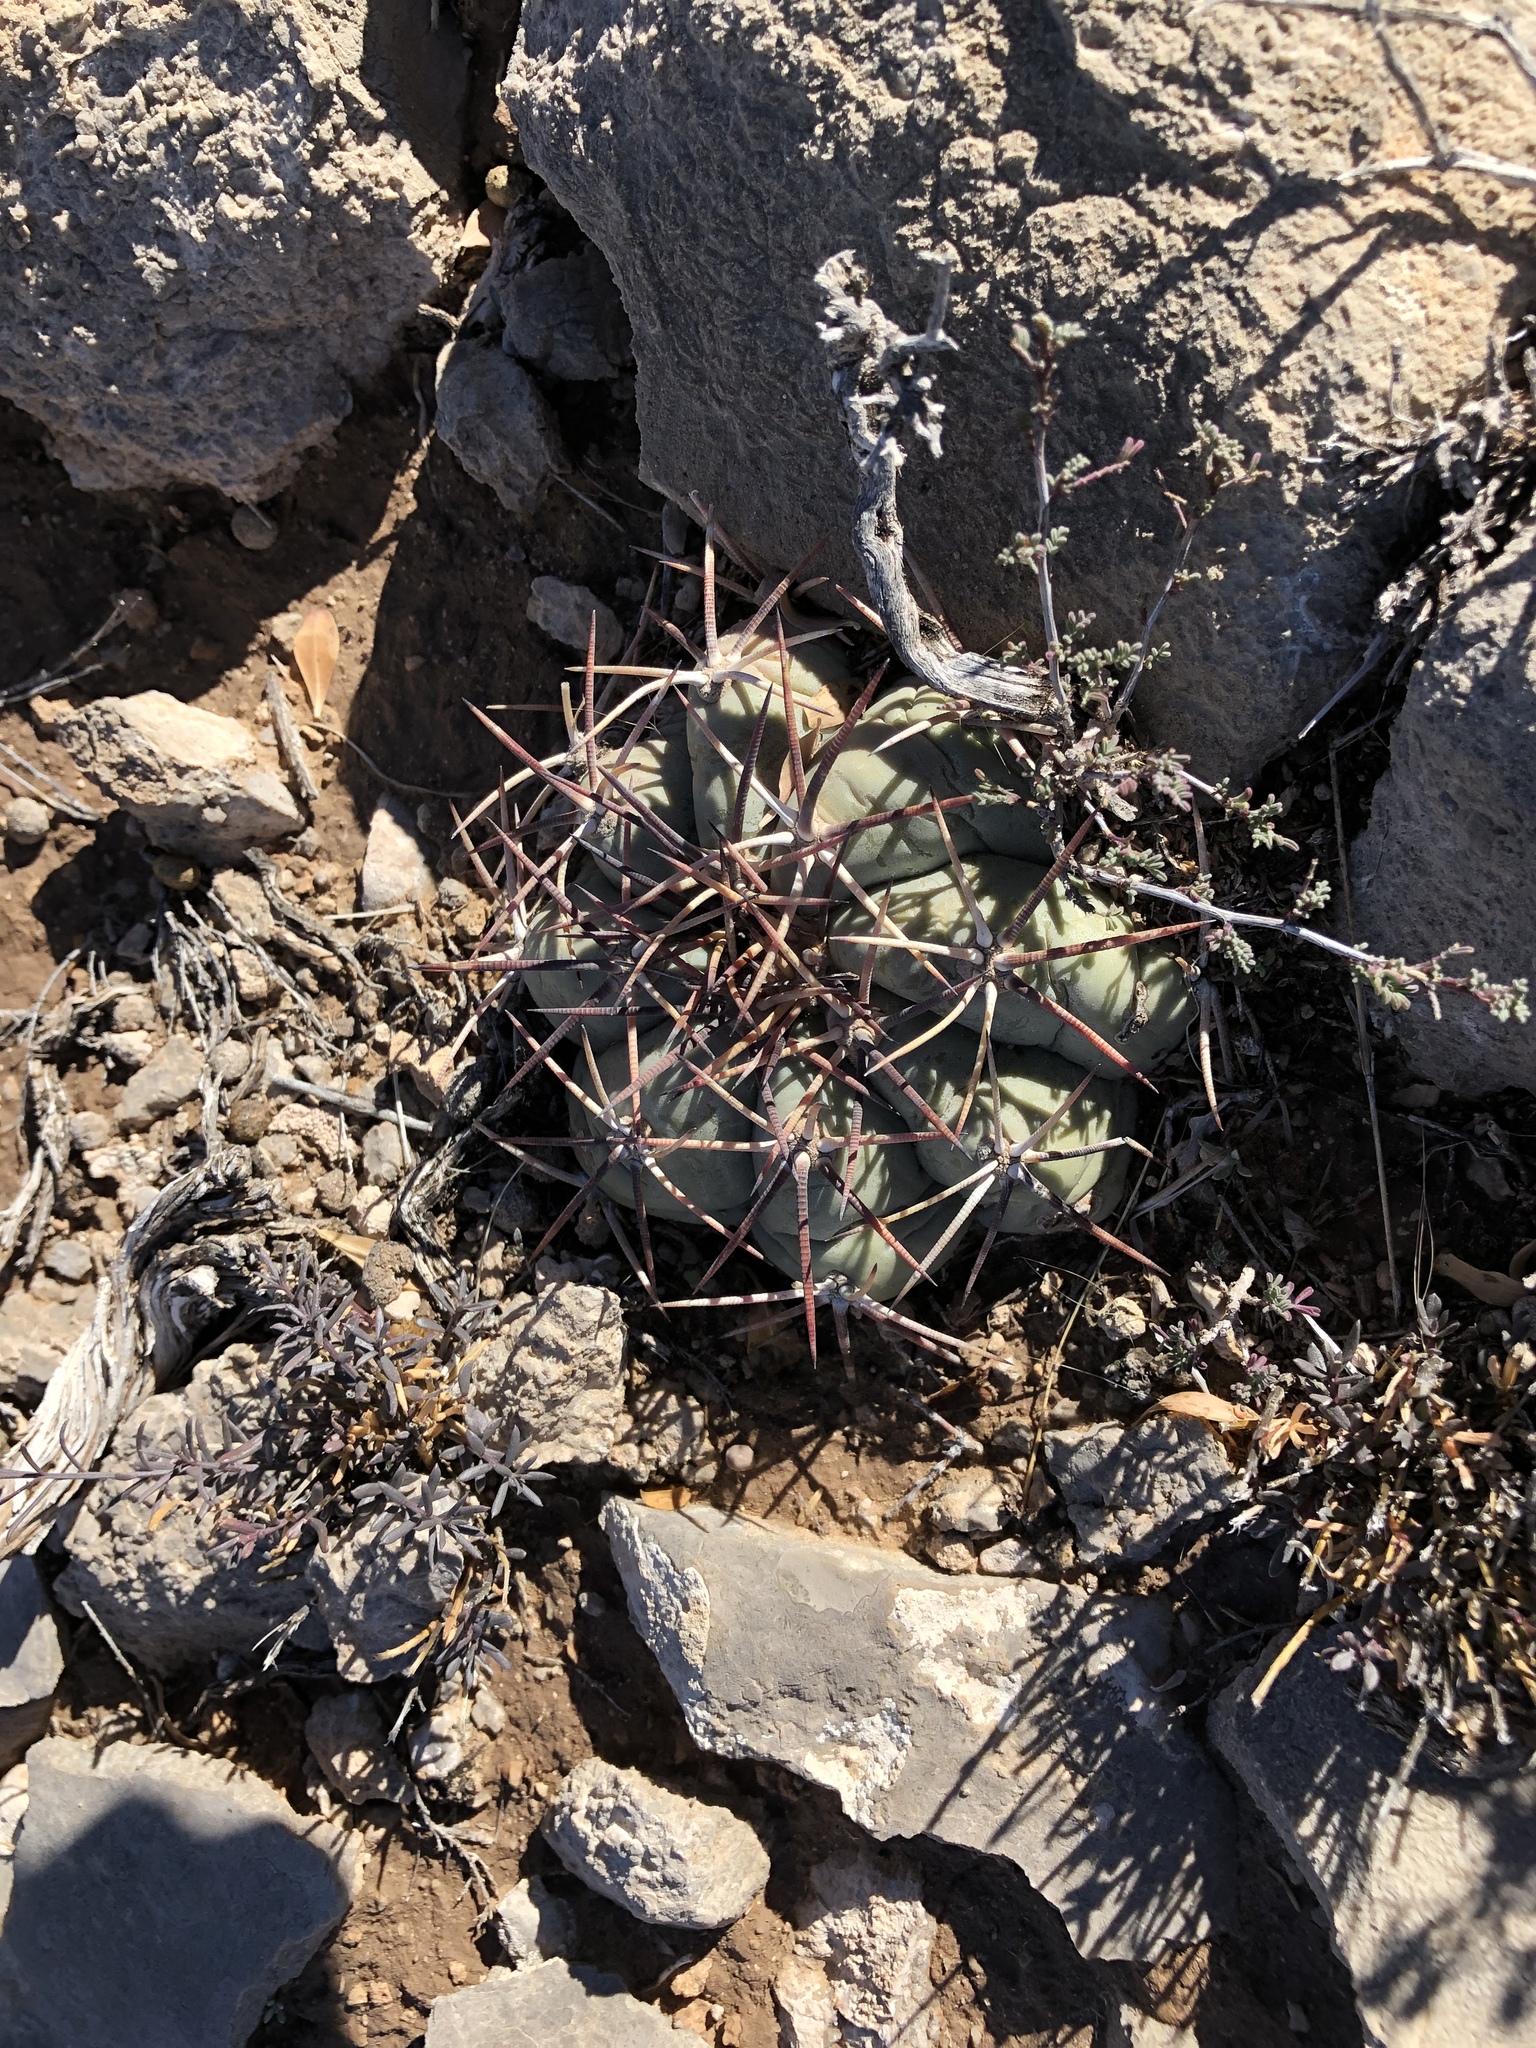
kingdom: Plantae
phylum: Tracheophyta
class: Magnoliopsida
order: Caryophyllales
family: Cactaceae
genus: Echinocactus
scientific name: Echinocactus horizonthalonius
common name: Devilshead
